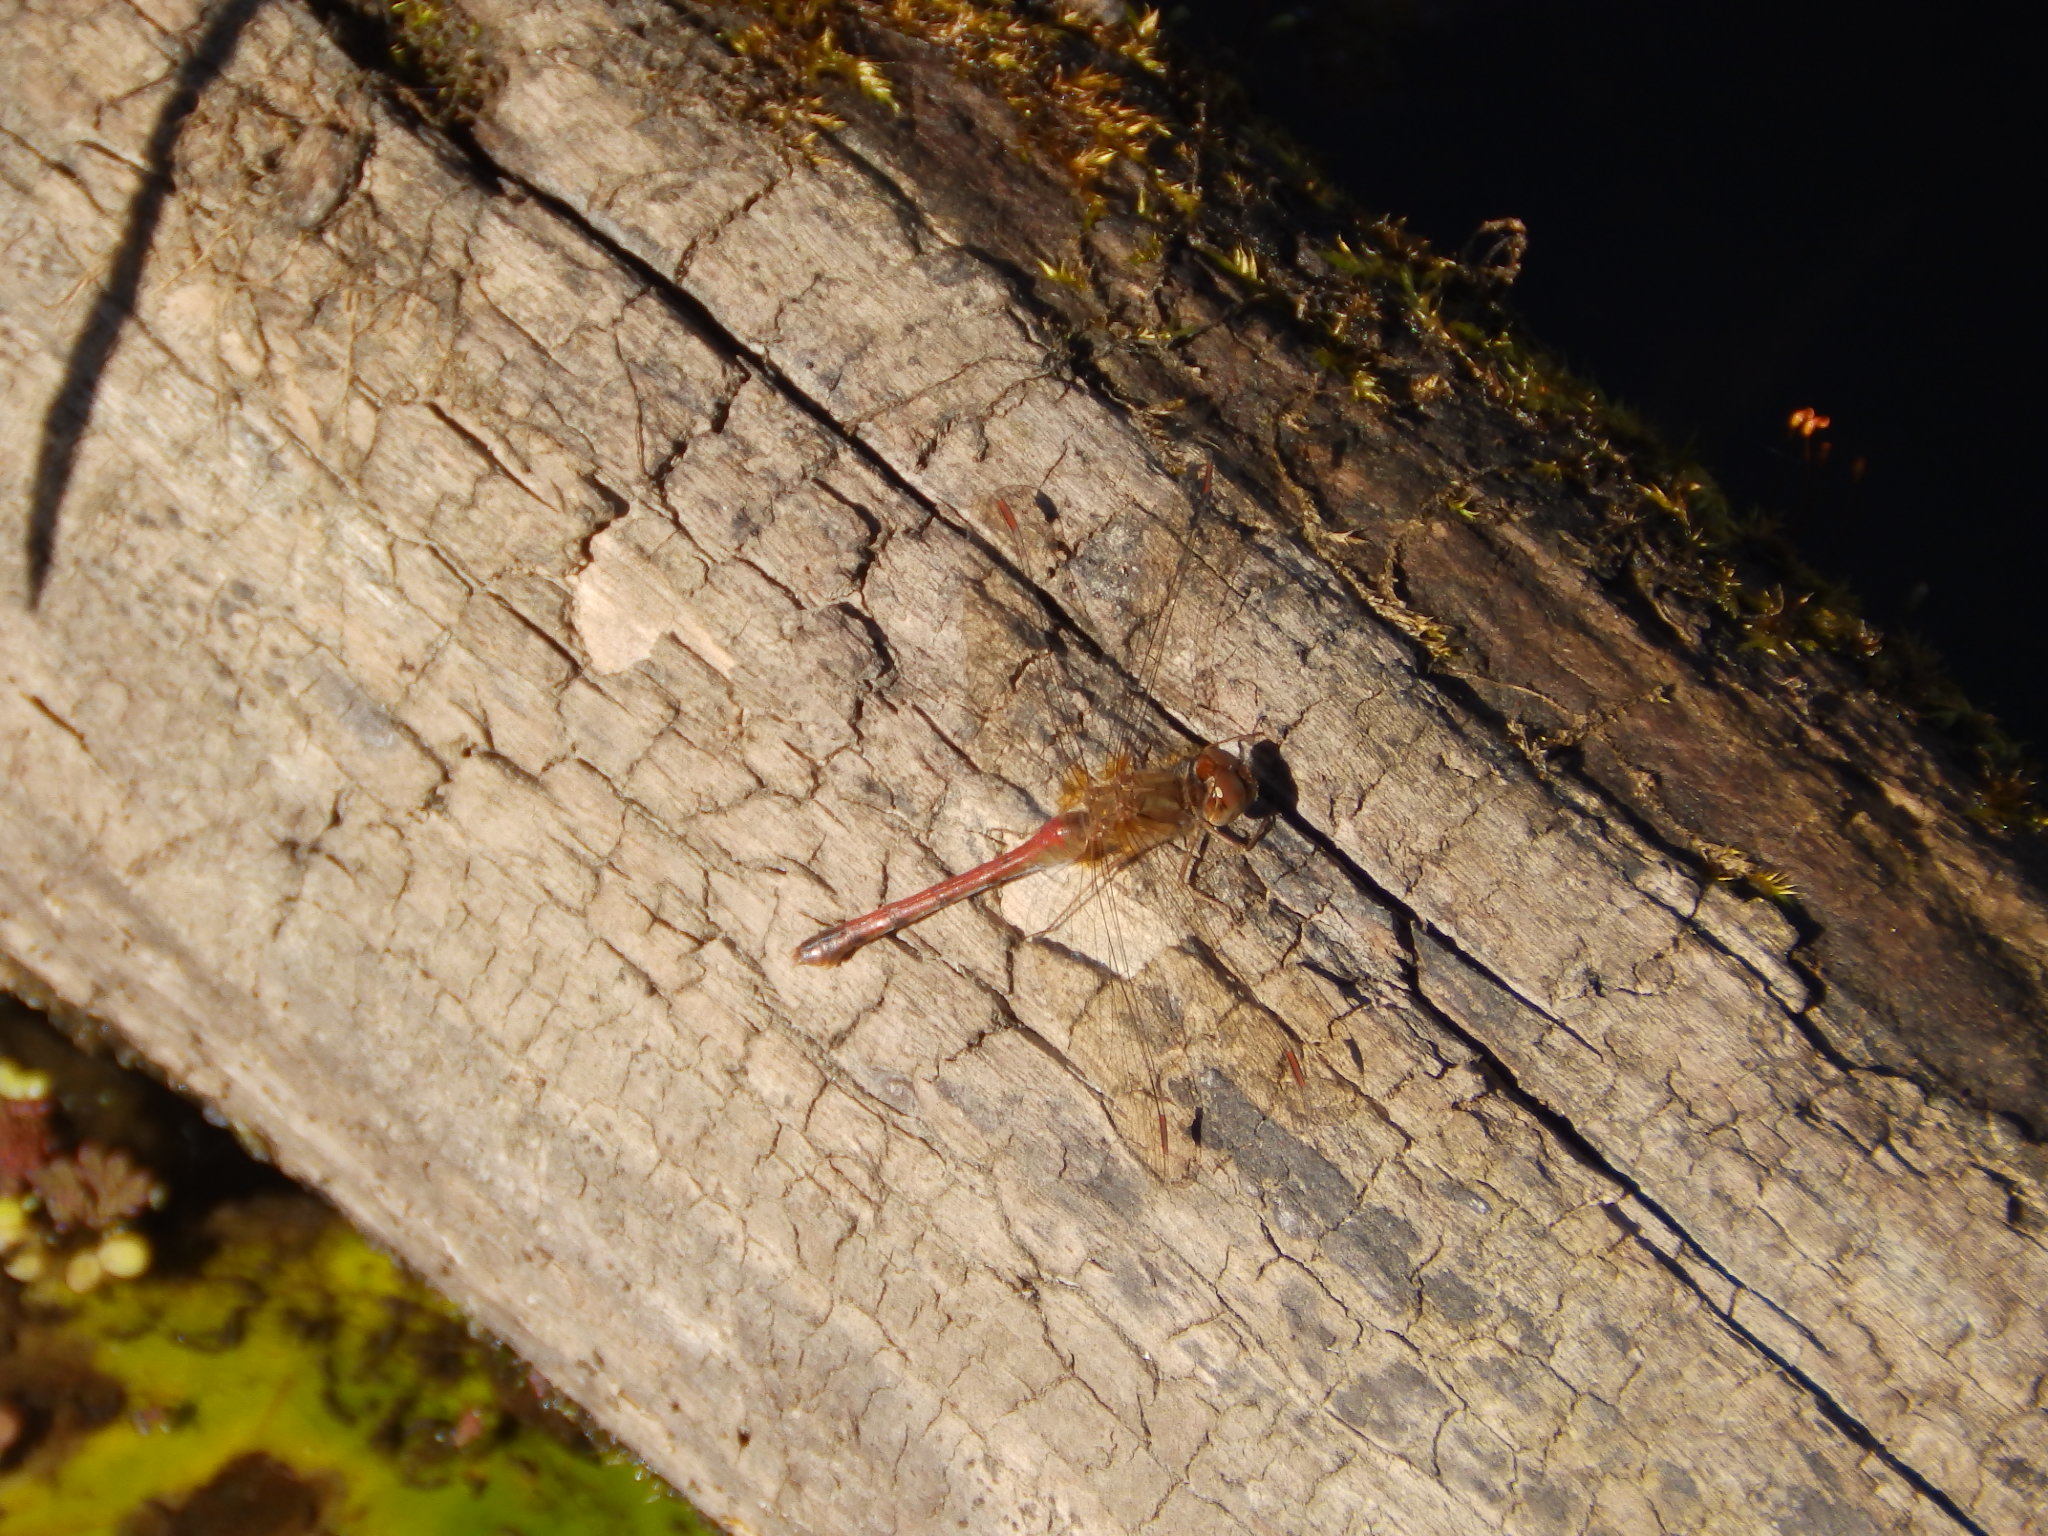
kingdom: Animalia
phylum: Arthropoda
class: Insecta
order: Odonata
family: Libellulidae
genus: Sympetrum
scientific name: Sympetrum vicinum
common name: Autumn meadowhawk
